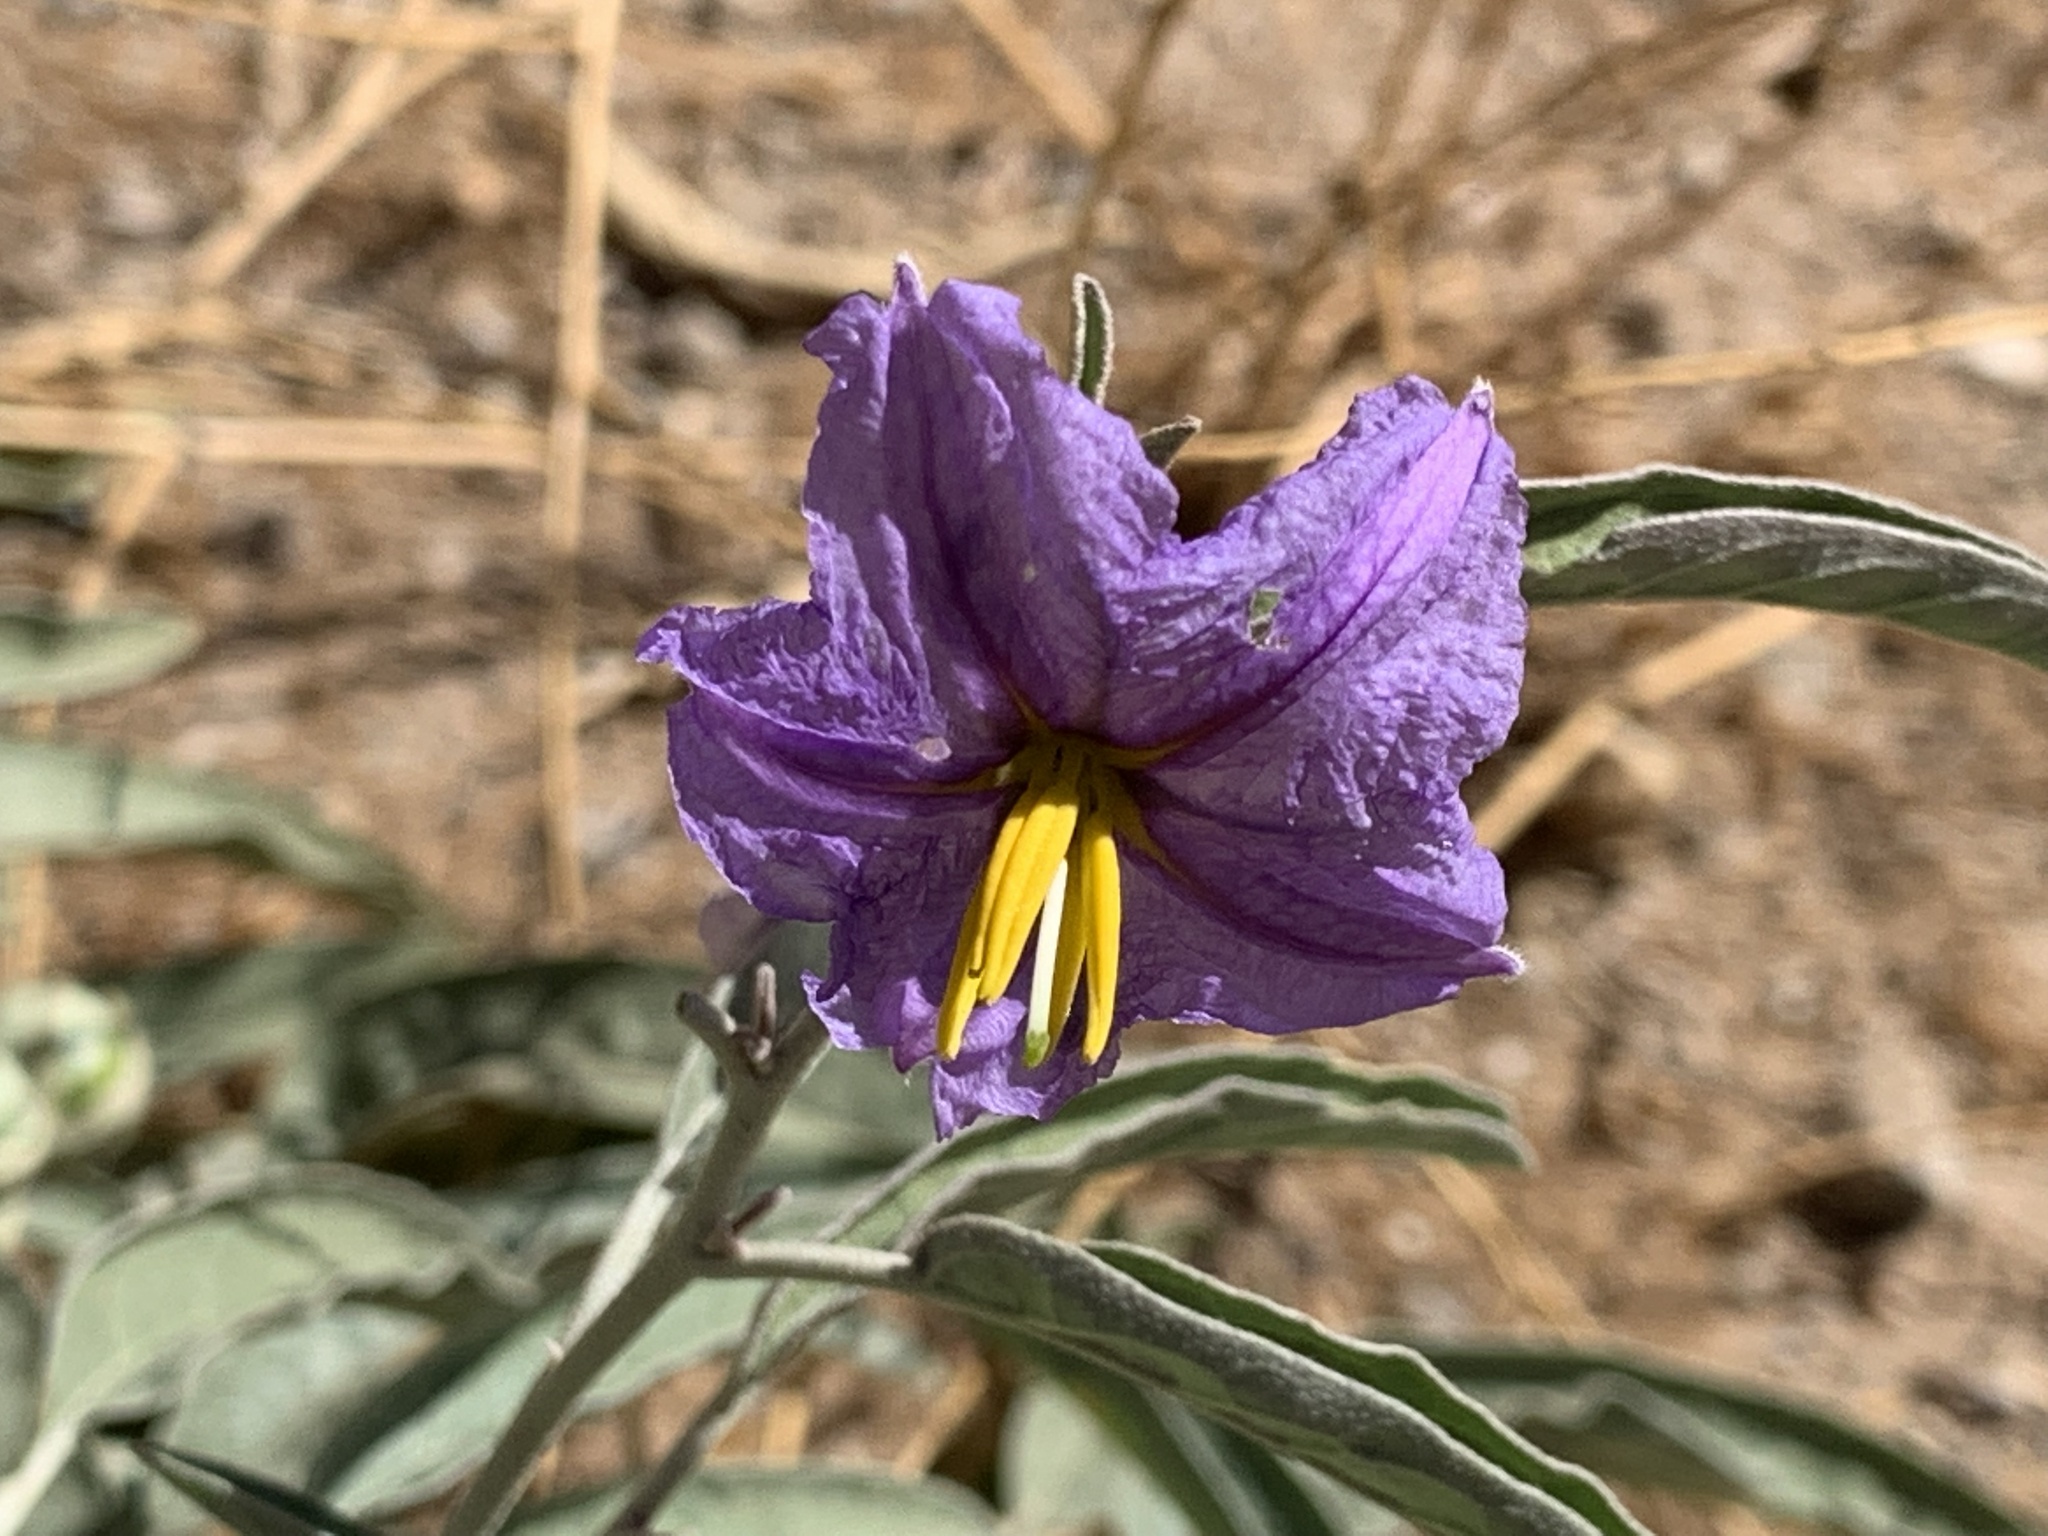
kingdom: Plantae
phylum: Tracheophyta
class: Magnoliopsida
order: Solanales
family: Solanaceae
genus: Solanum
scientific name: Solanum elaeagnifolium
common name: Silverleaf nightshade
